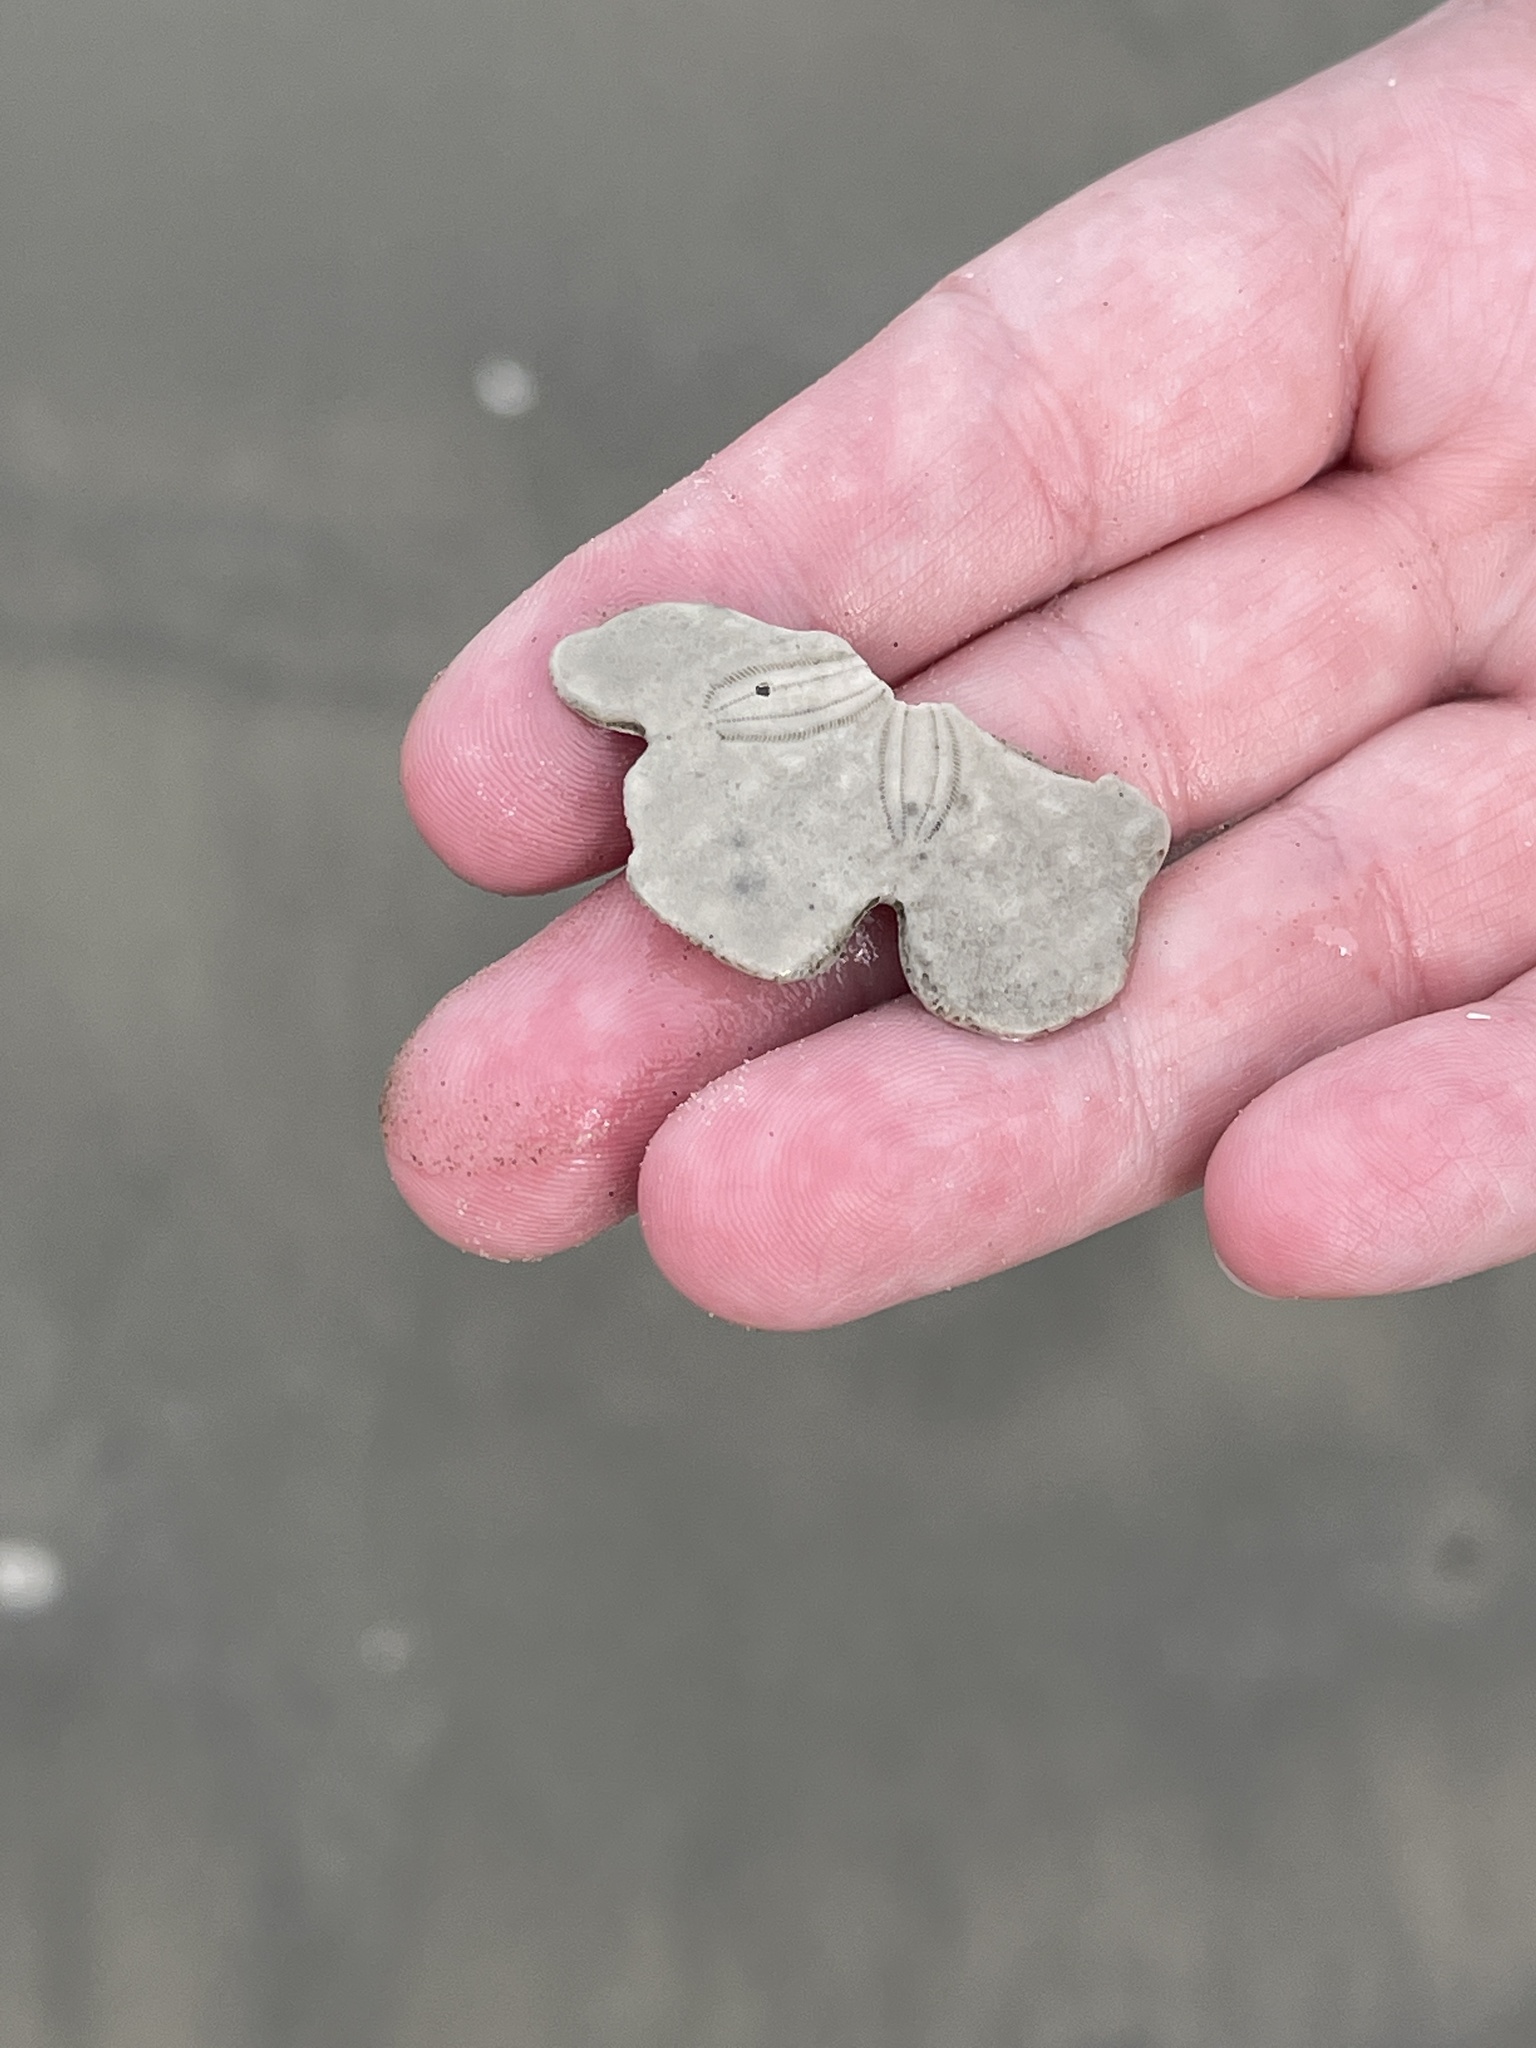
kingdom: Animalia
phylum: Echinodermata
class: Echinoidea
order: Echinolampadacea
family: Mellitidae
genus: Mellita
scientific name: Mellita quinquiesperforata
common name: Sand dollar
